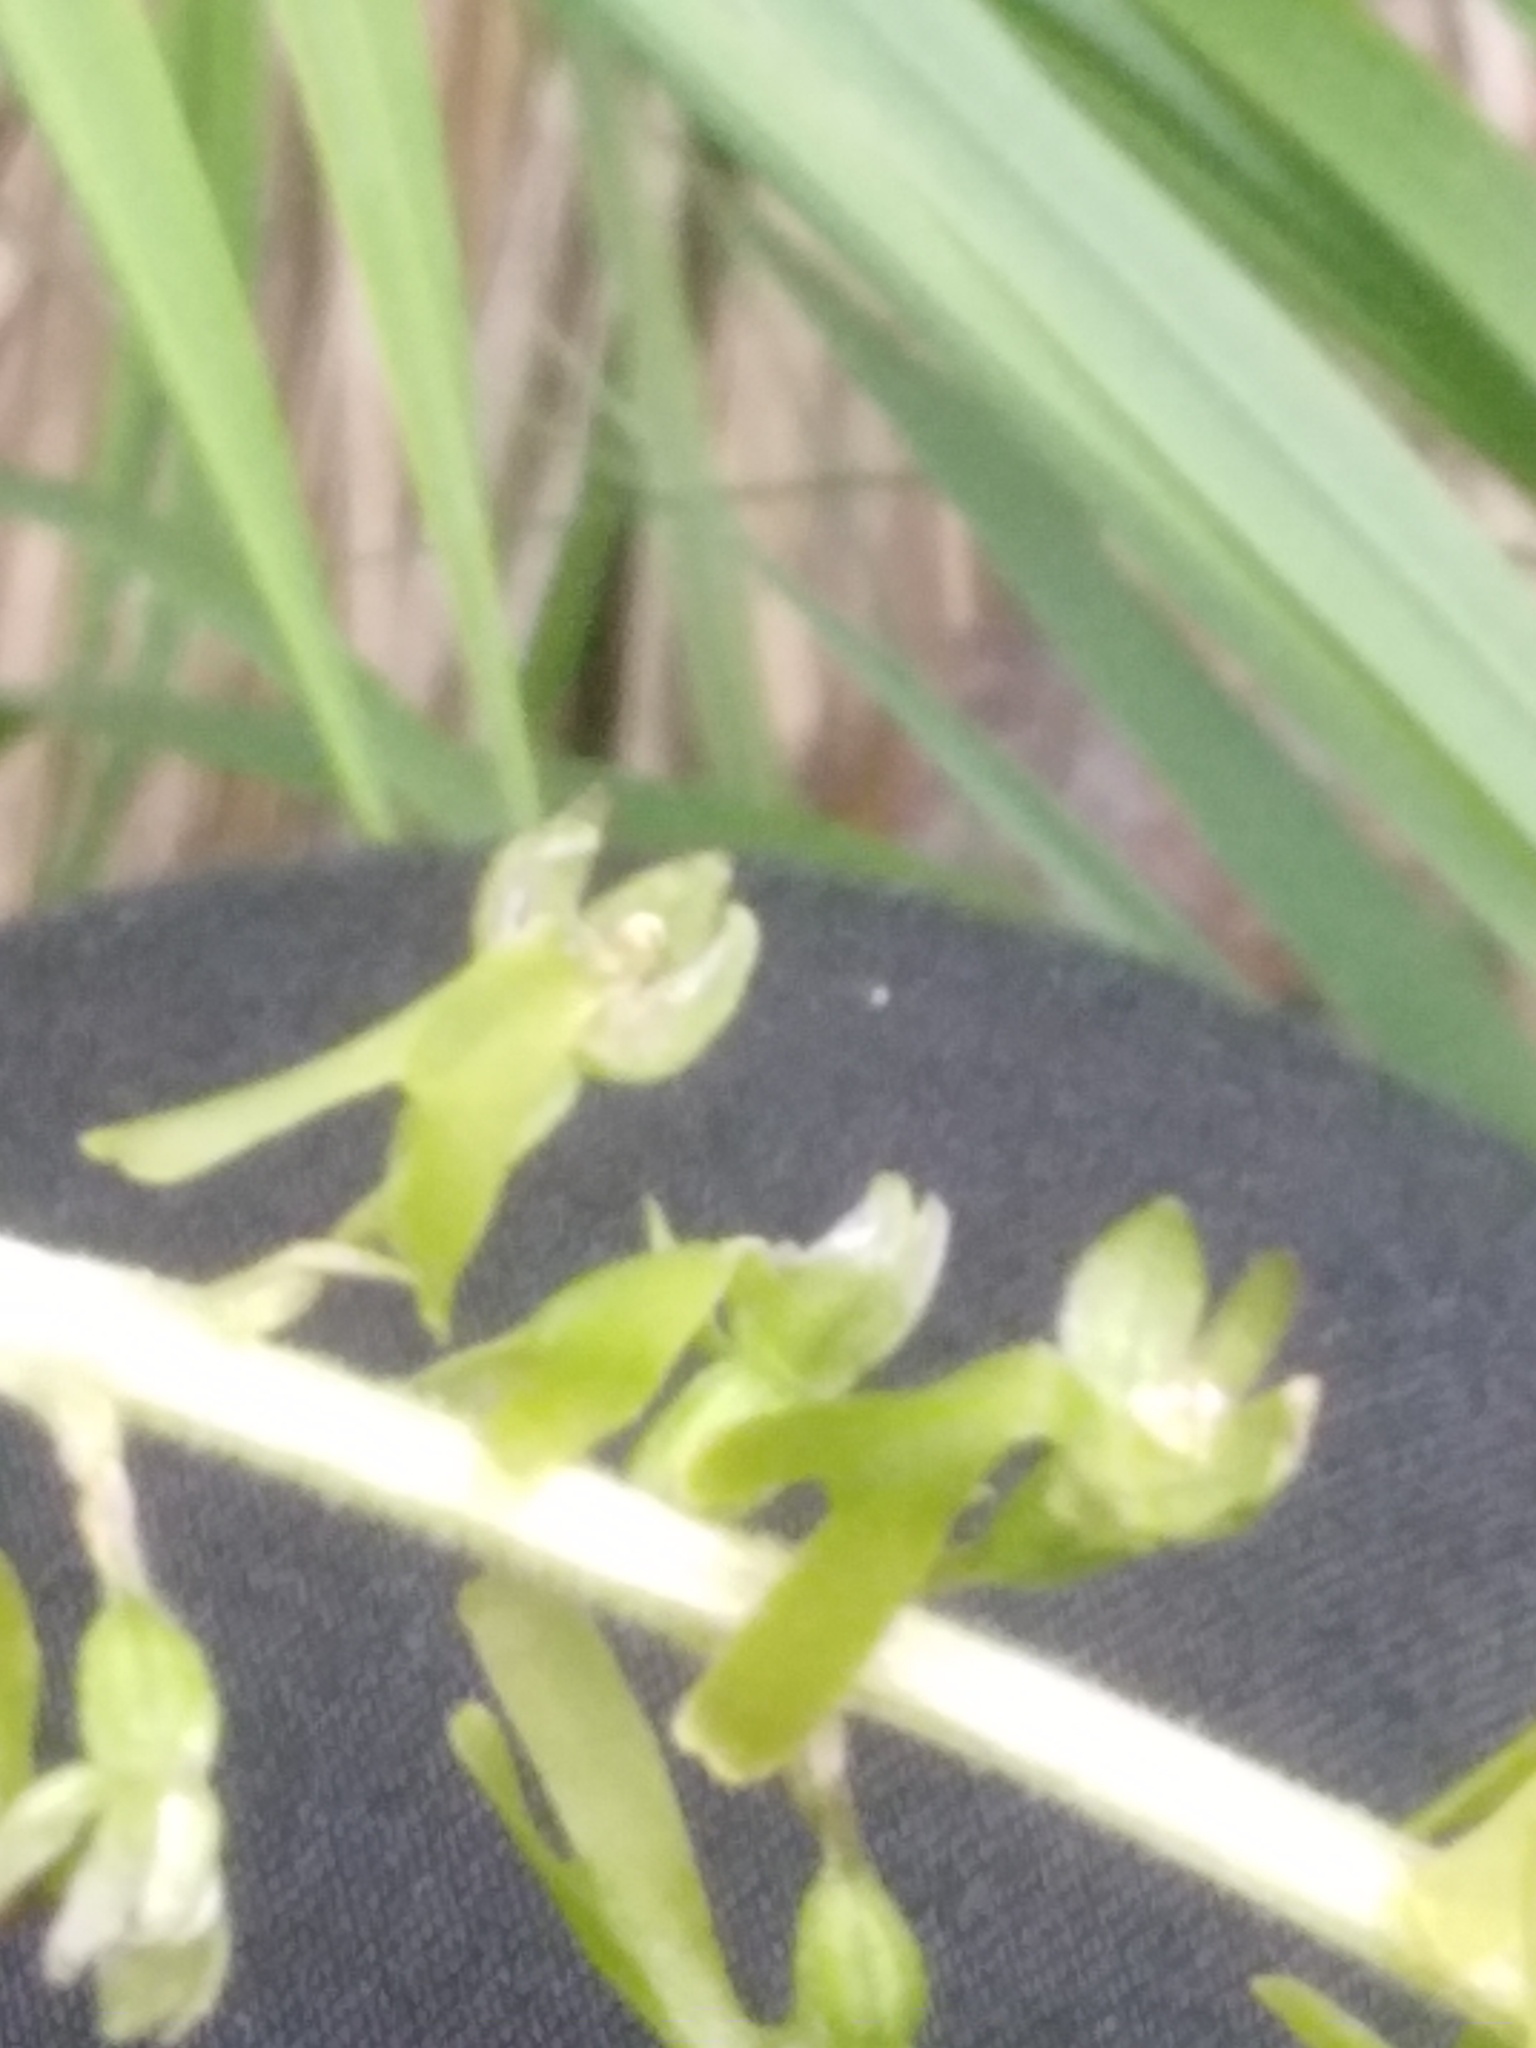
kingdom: Plantae
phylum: Tracheophyta
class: Liliopsida
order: Asparagales
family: Orchidaceae
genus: Neottia
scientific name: Neottia ovata
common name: Common twayblade
